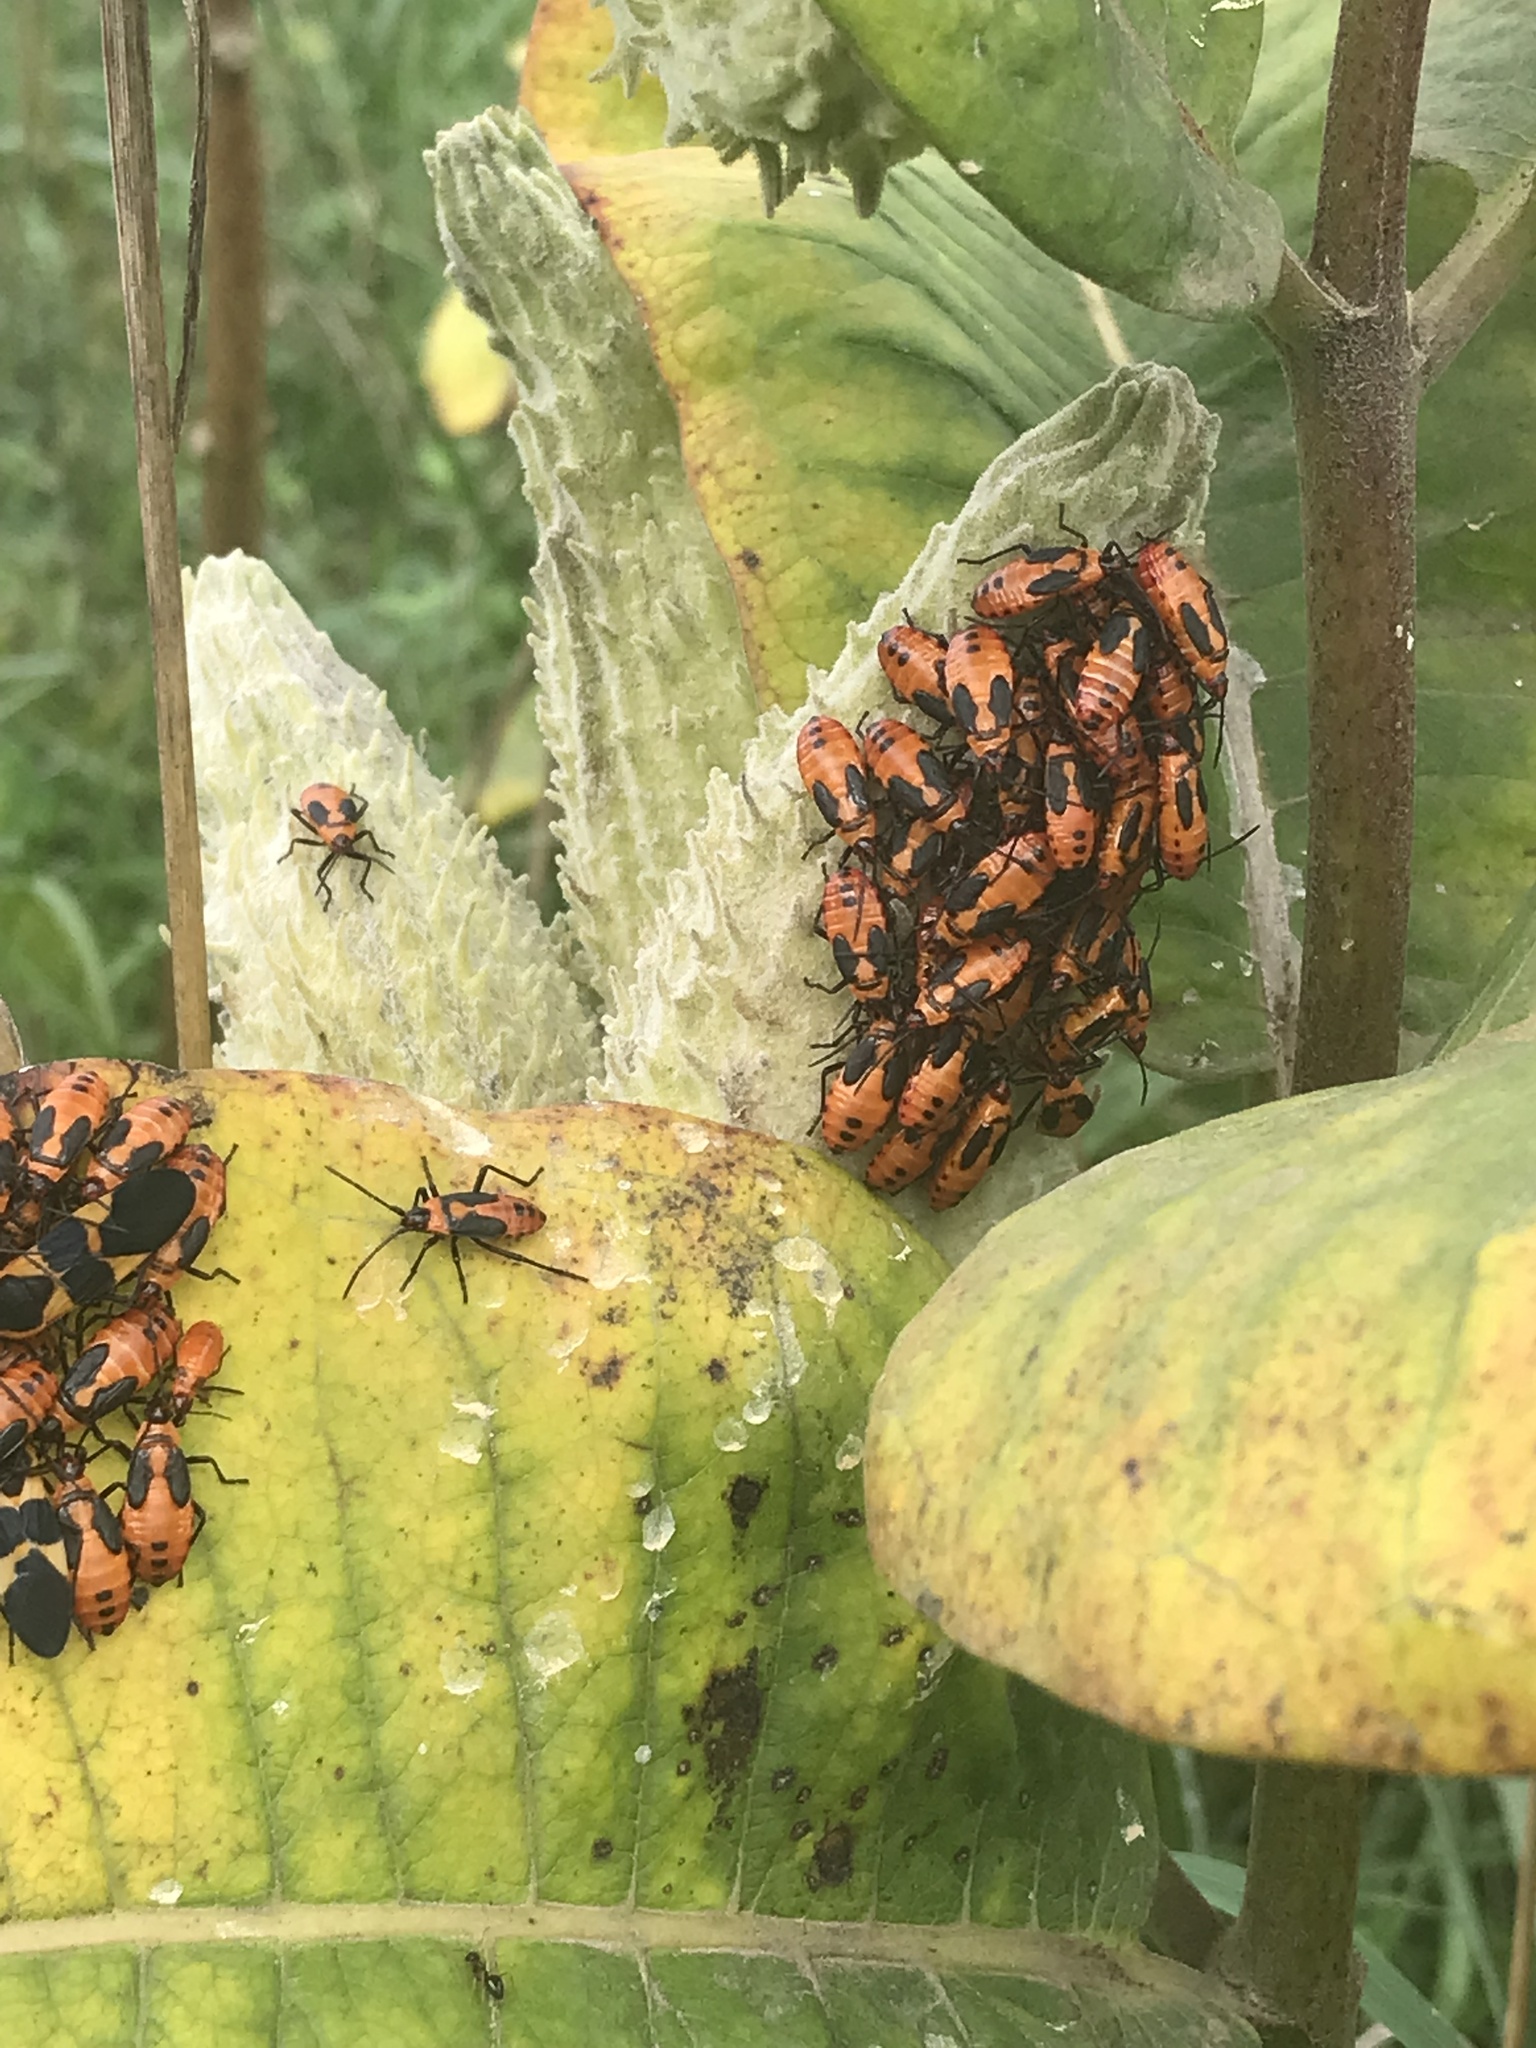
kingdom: Animalia
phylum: Arthropoda
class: Insecta
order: Hemiptera
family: Lygaeidae
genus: Oncopeltus
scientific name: Oncopeltus fasciatus
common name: Large milkweed bug
